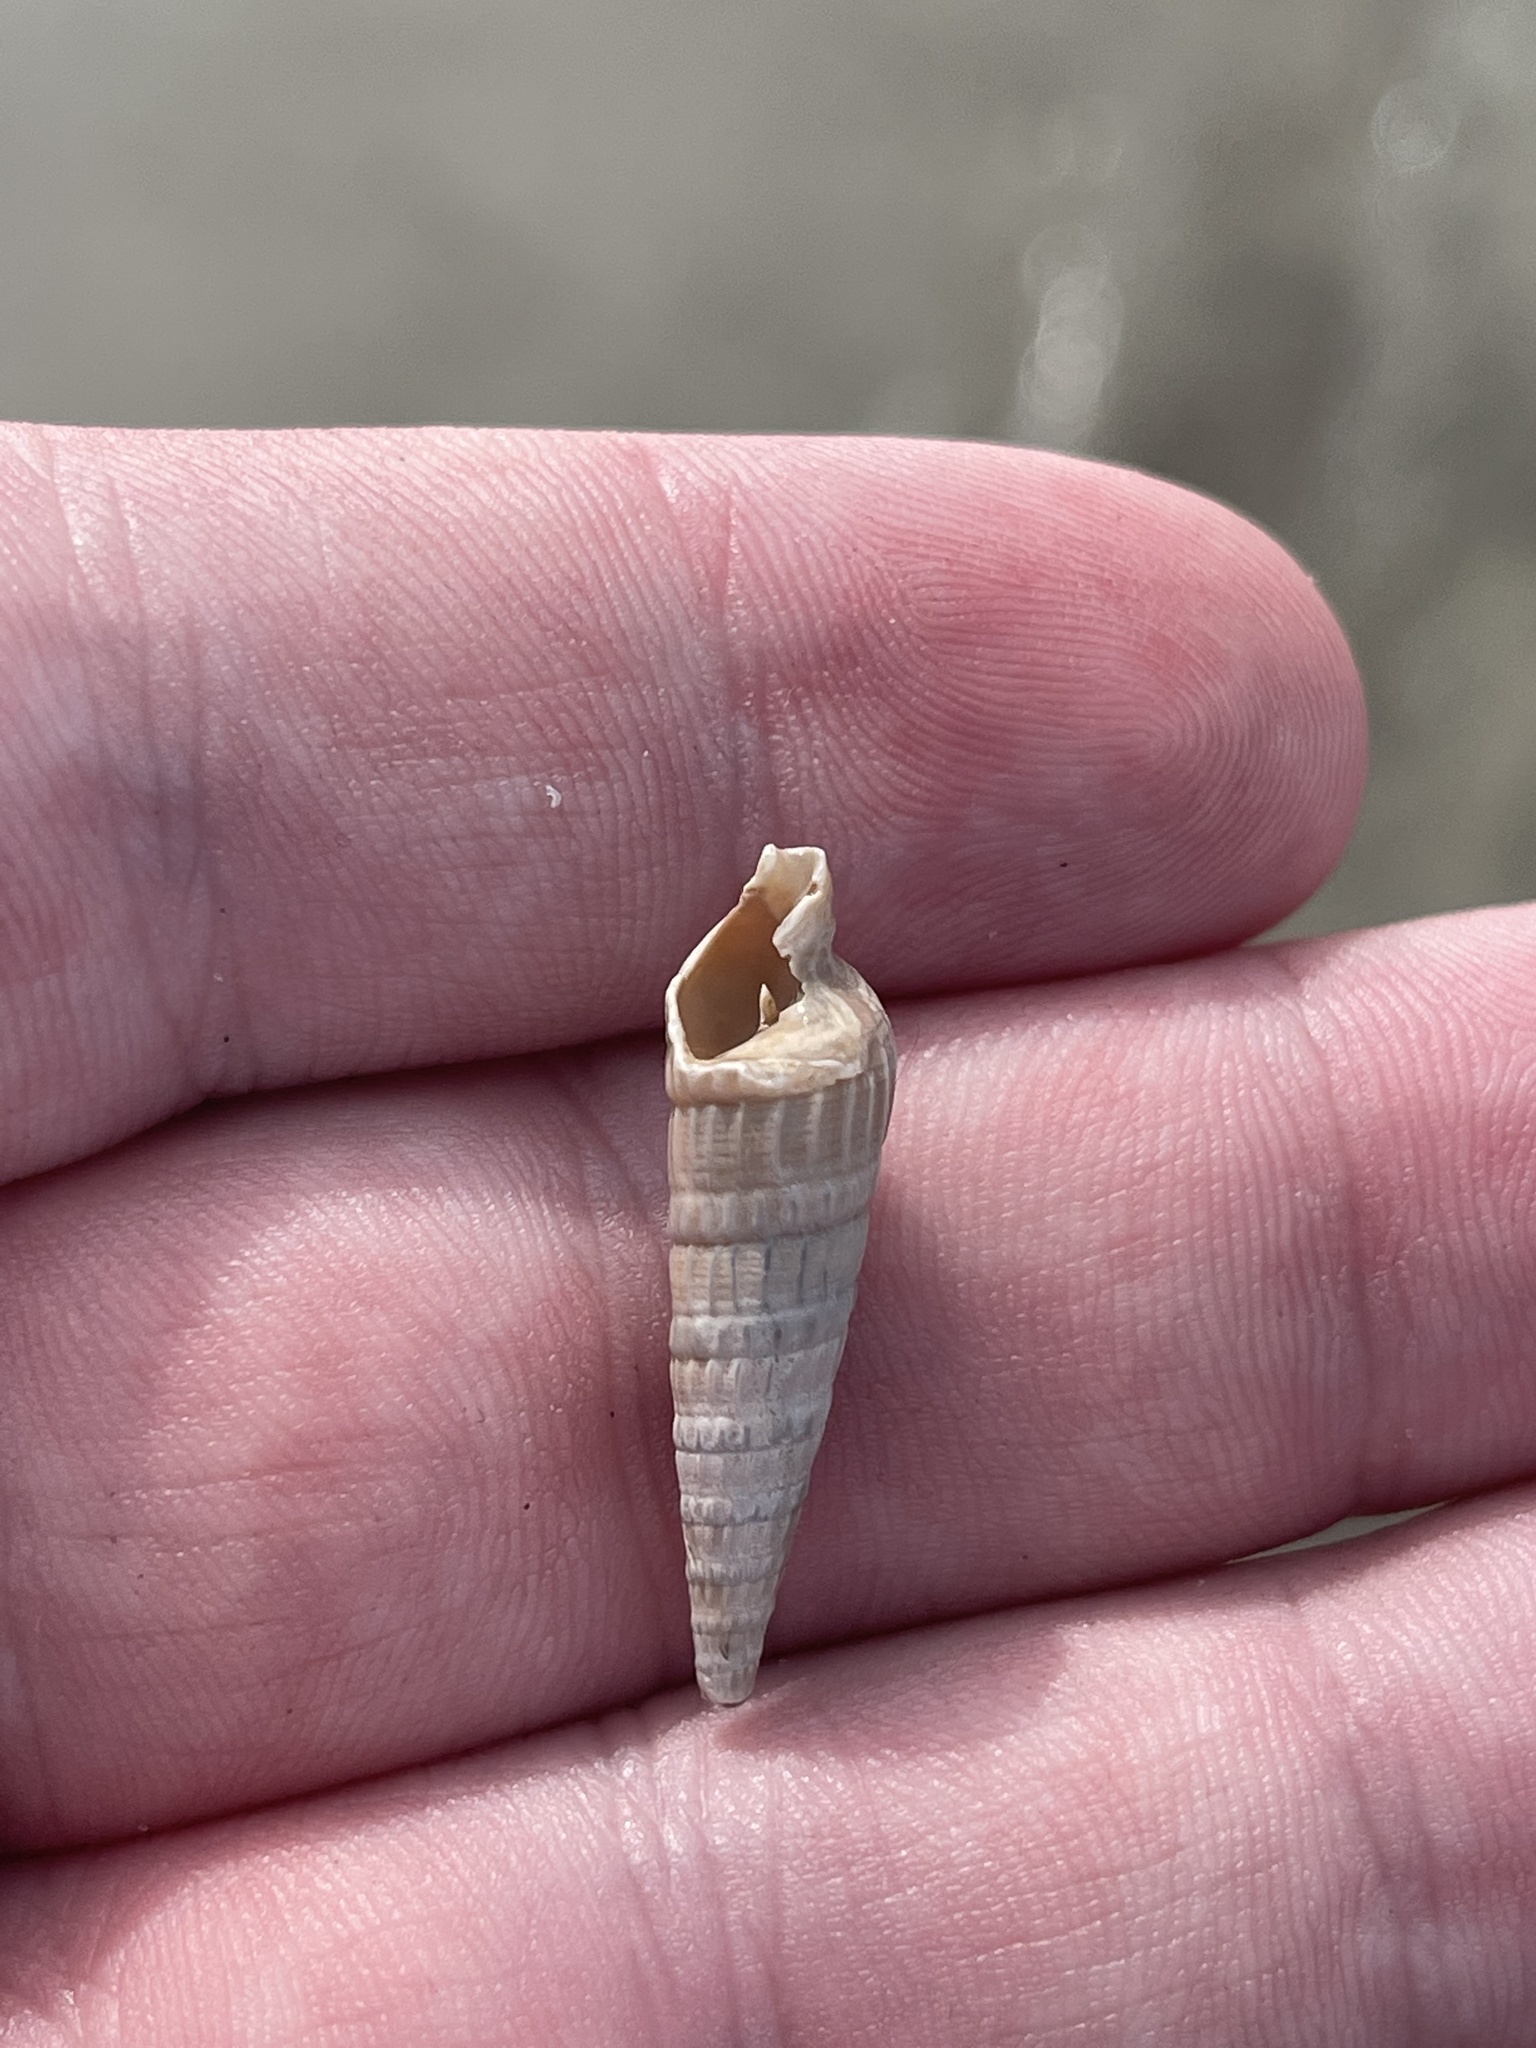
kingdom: Animalia
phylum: Mollusca
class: Gastropoda
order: Neogastropoda
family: Terebridae
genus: Neoterebra
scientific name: Neoterebra dislocata
